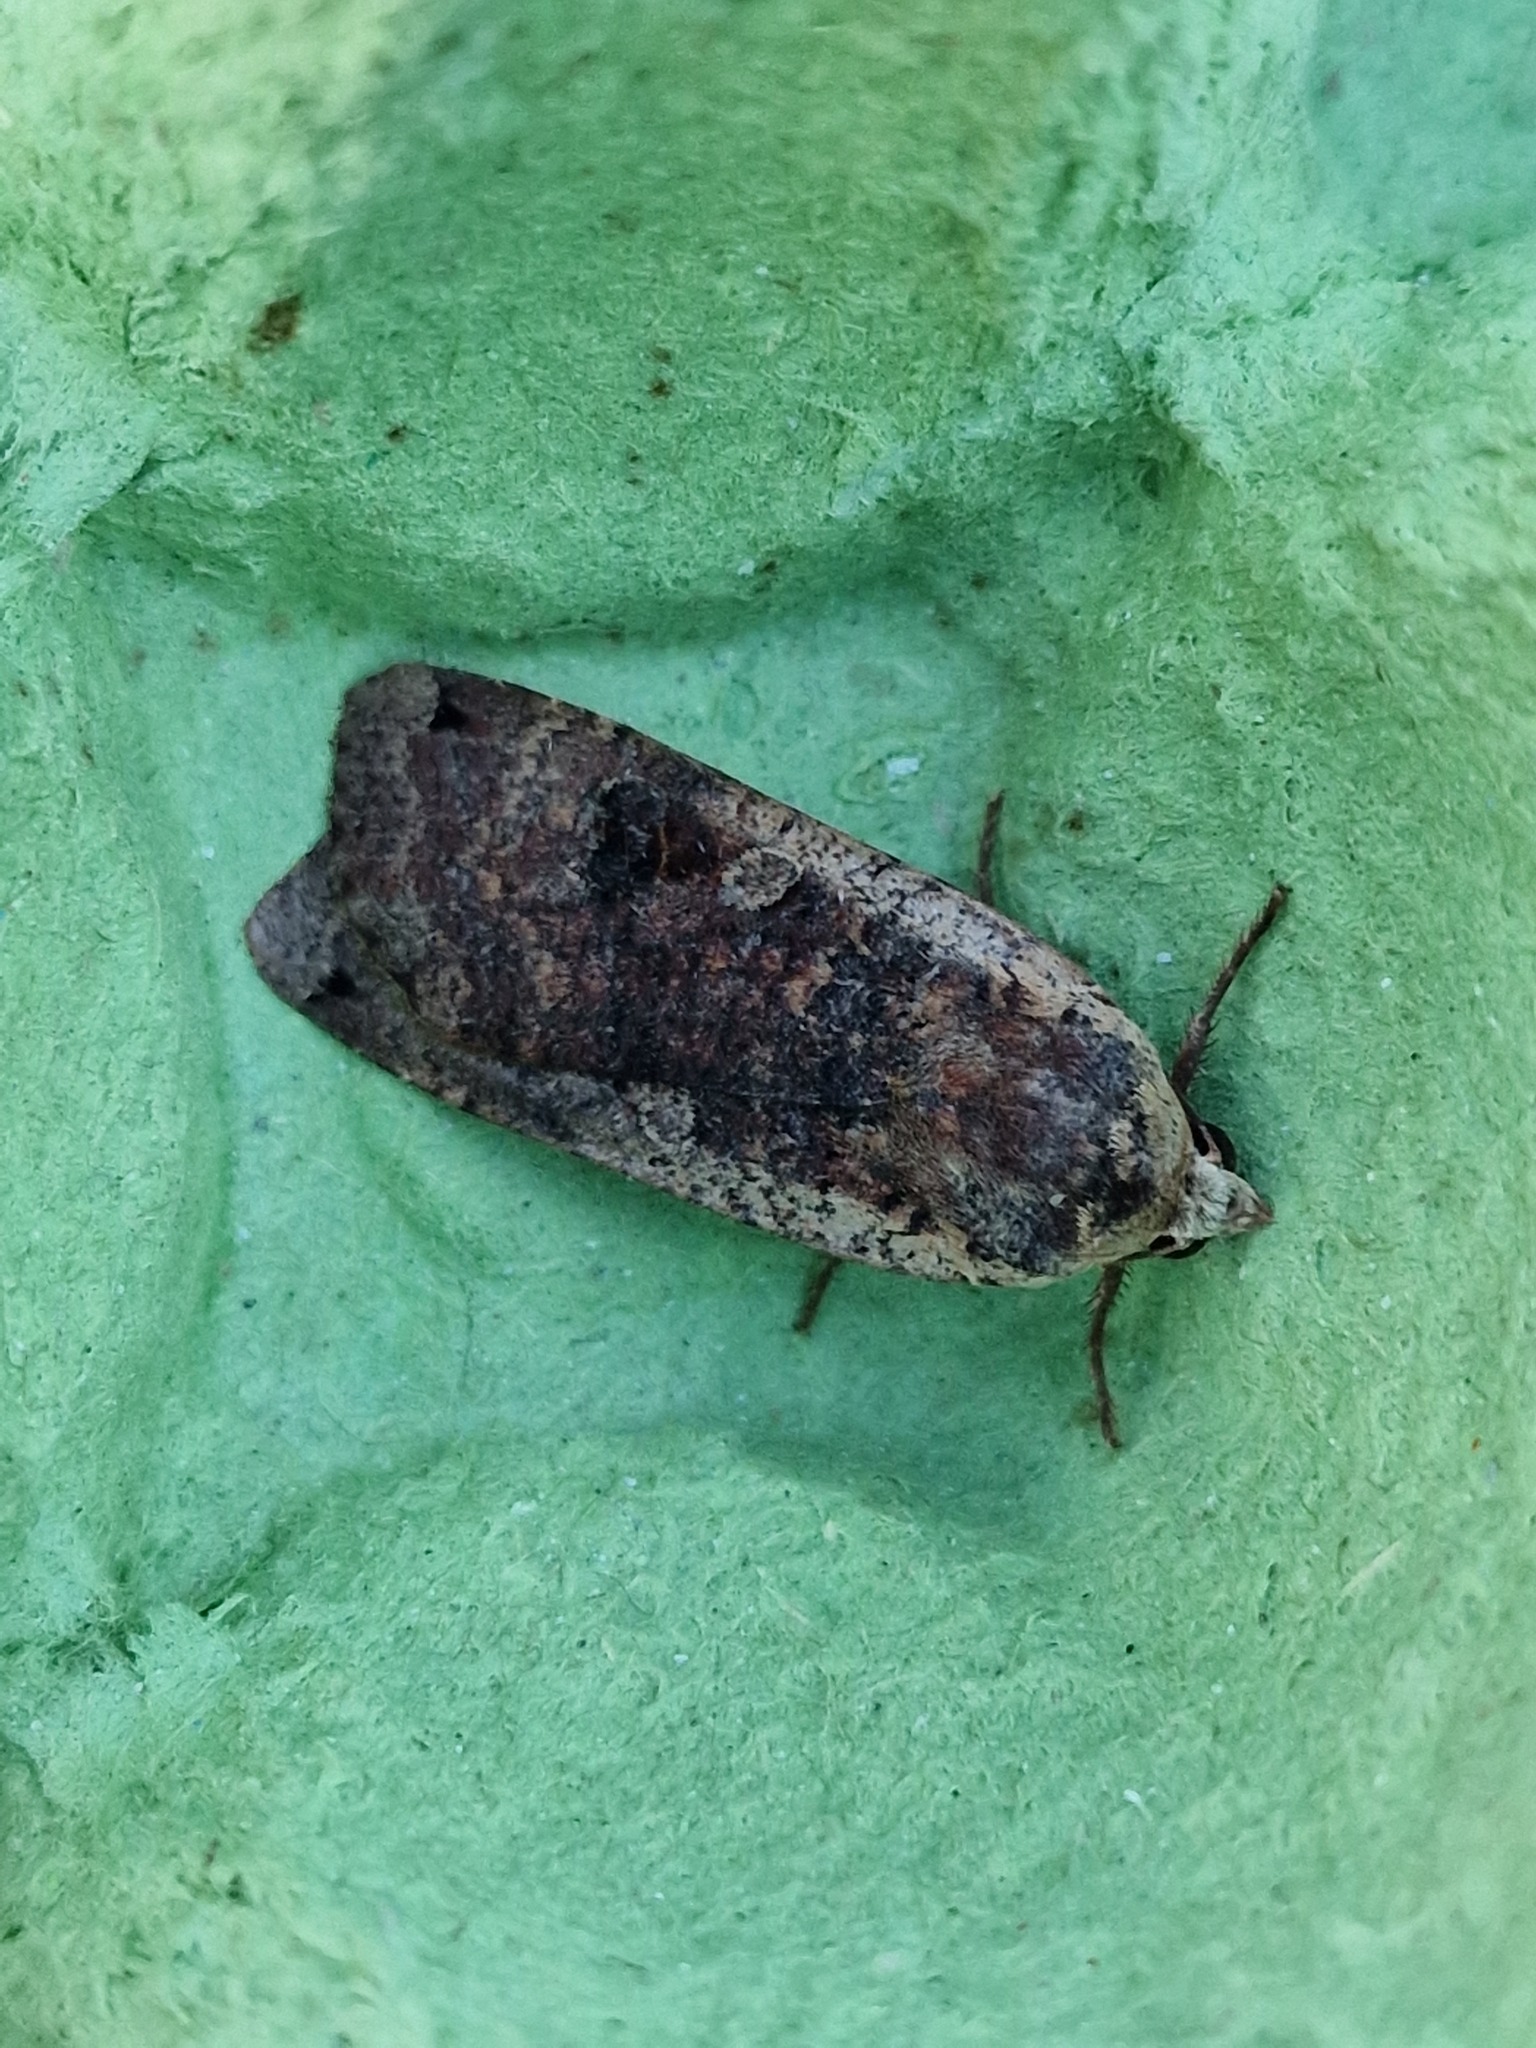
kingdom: Animalia
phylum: Arthropoda
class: Insecta
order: Lepidoptera
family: Noctuidae
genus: Noctua
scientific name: Noctua pronuba
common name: Large yellow underwing
